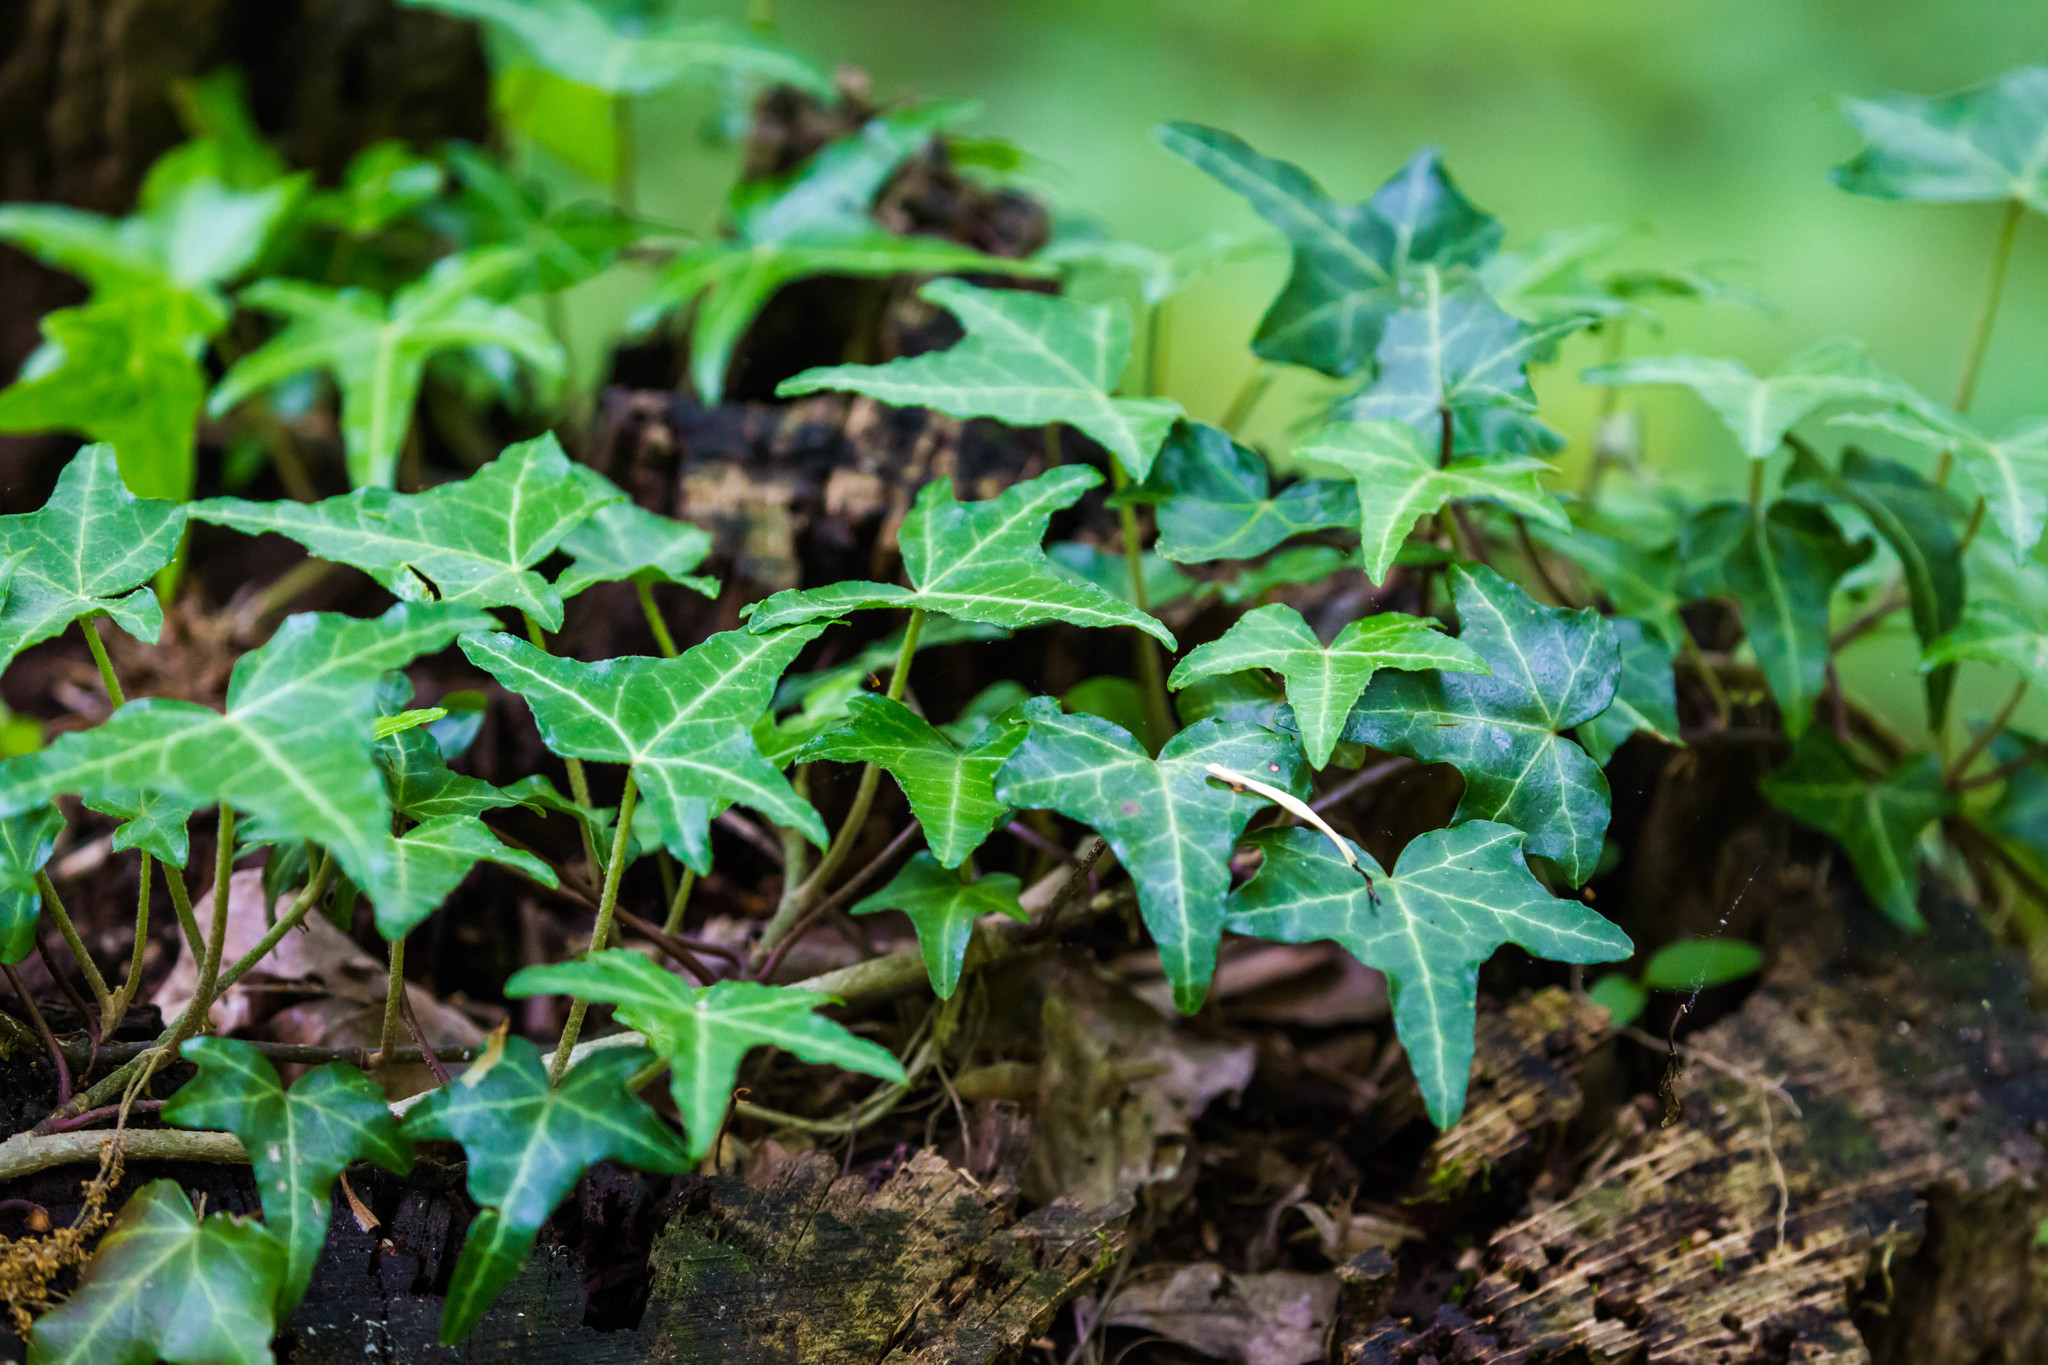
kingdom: Plantae
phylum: Tracheophyta
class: Magnoliopsida
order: Apiales
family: Araliaceae
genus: Hedera
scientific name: Hedera helix
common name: Ivy
